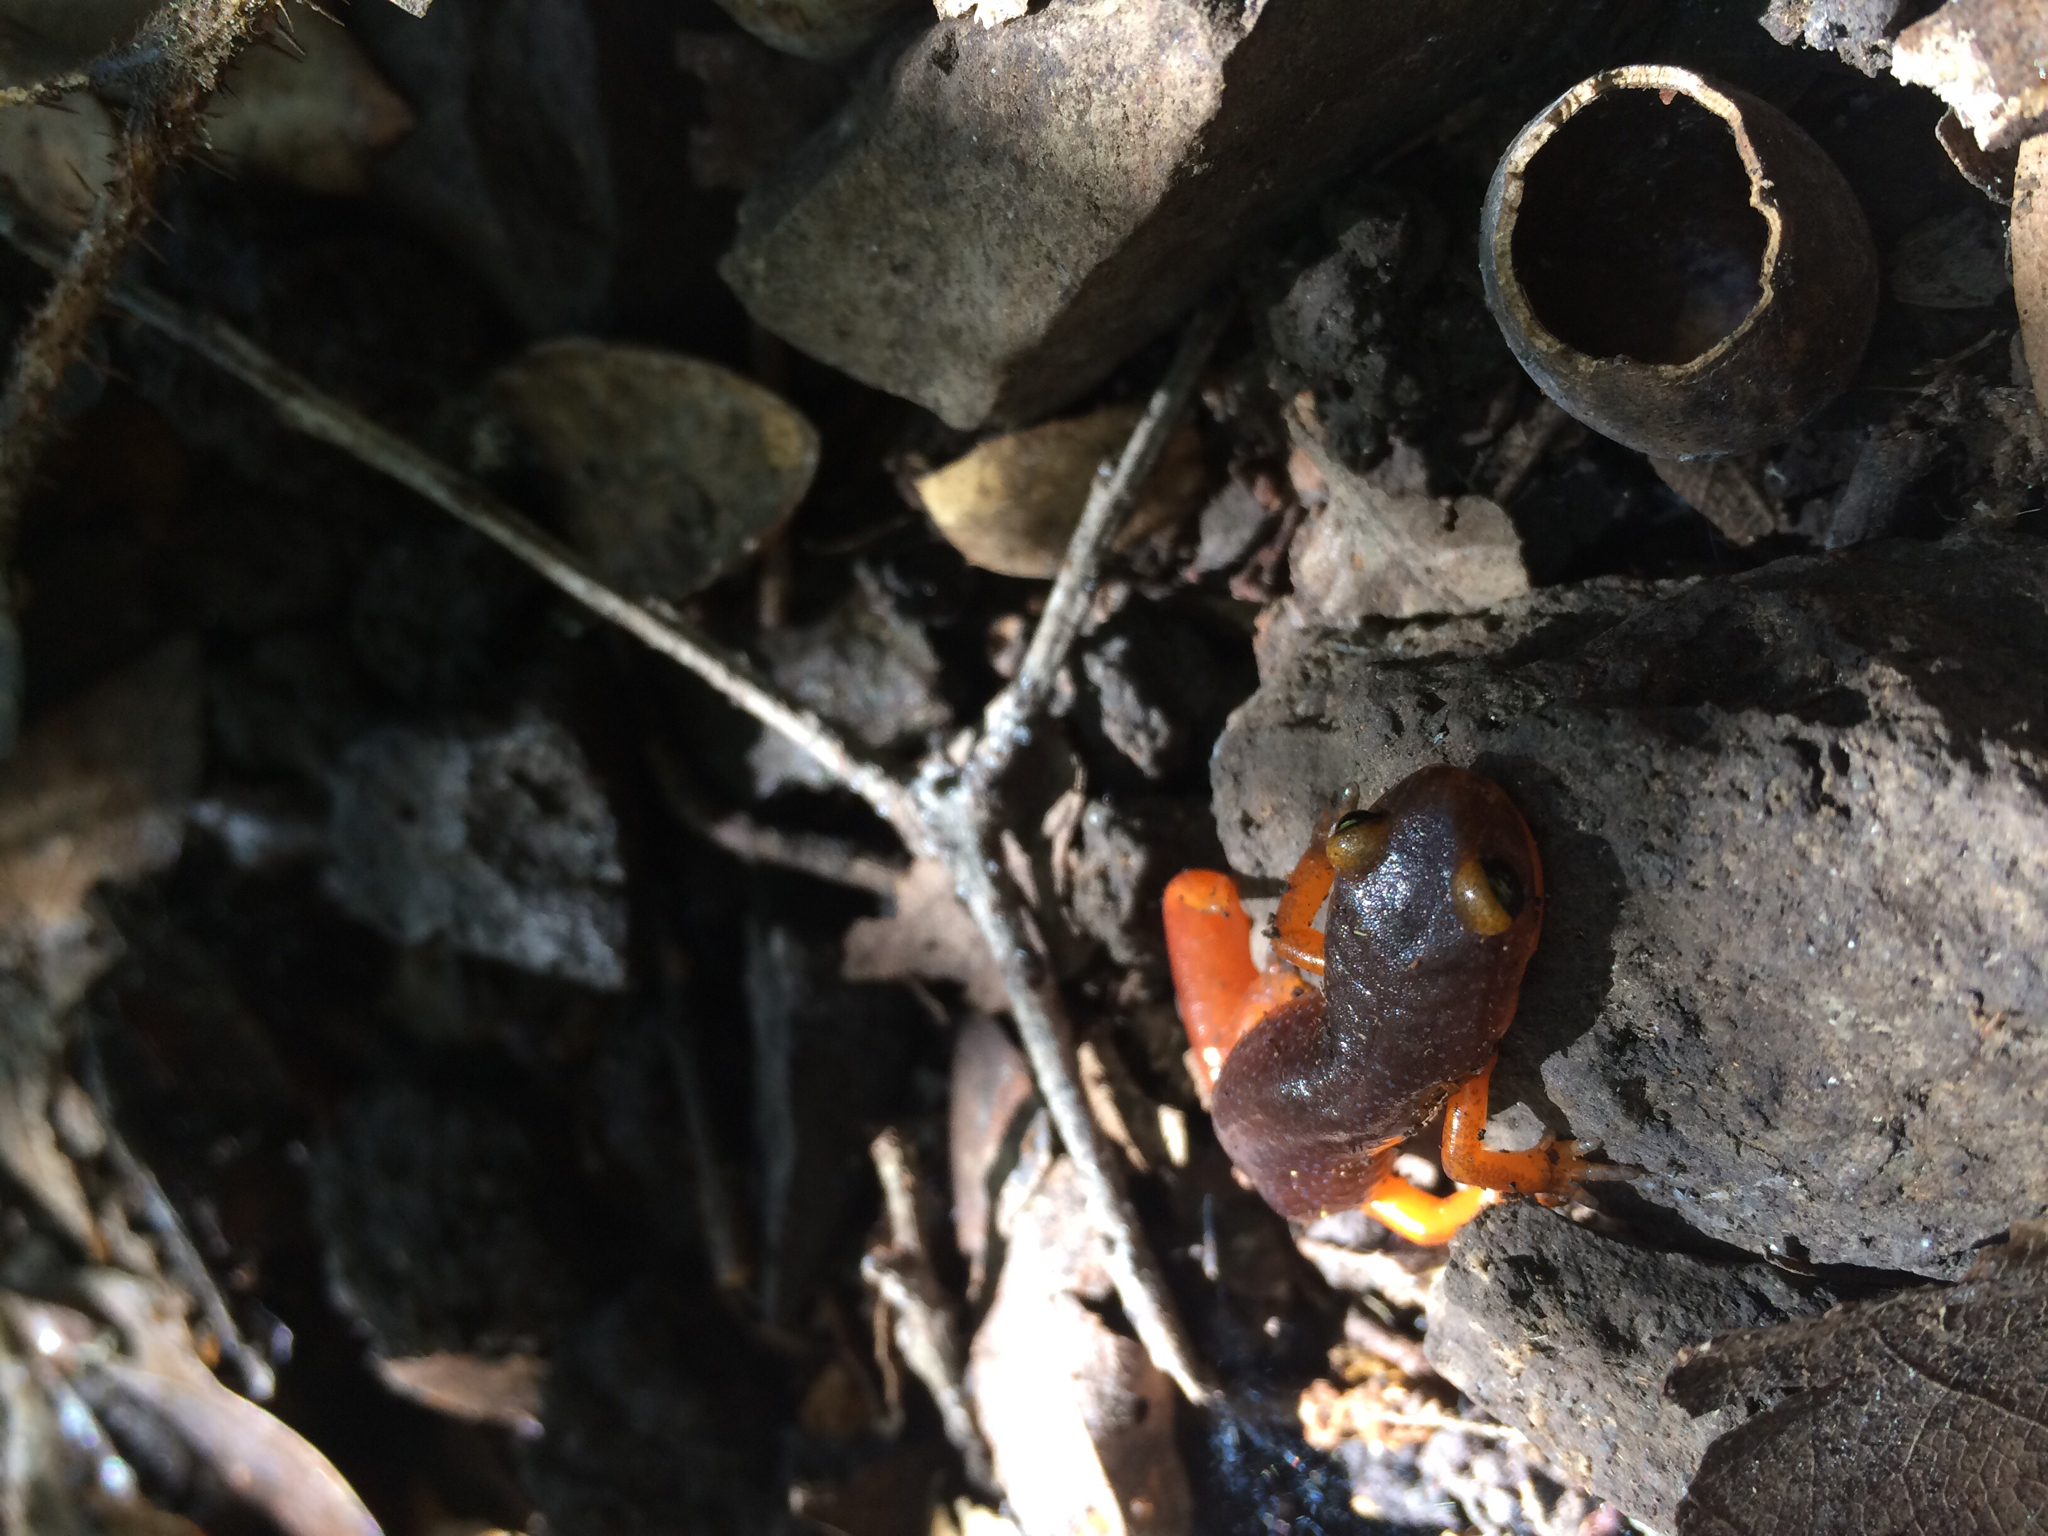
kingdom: Animalia
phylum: Chordata
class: Amphibia
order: Caudata
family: Plethodontidae
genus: Ensatina
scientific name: Ensatina eschscholtzii
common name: Ensatina
